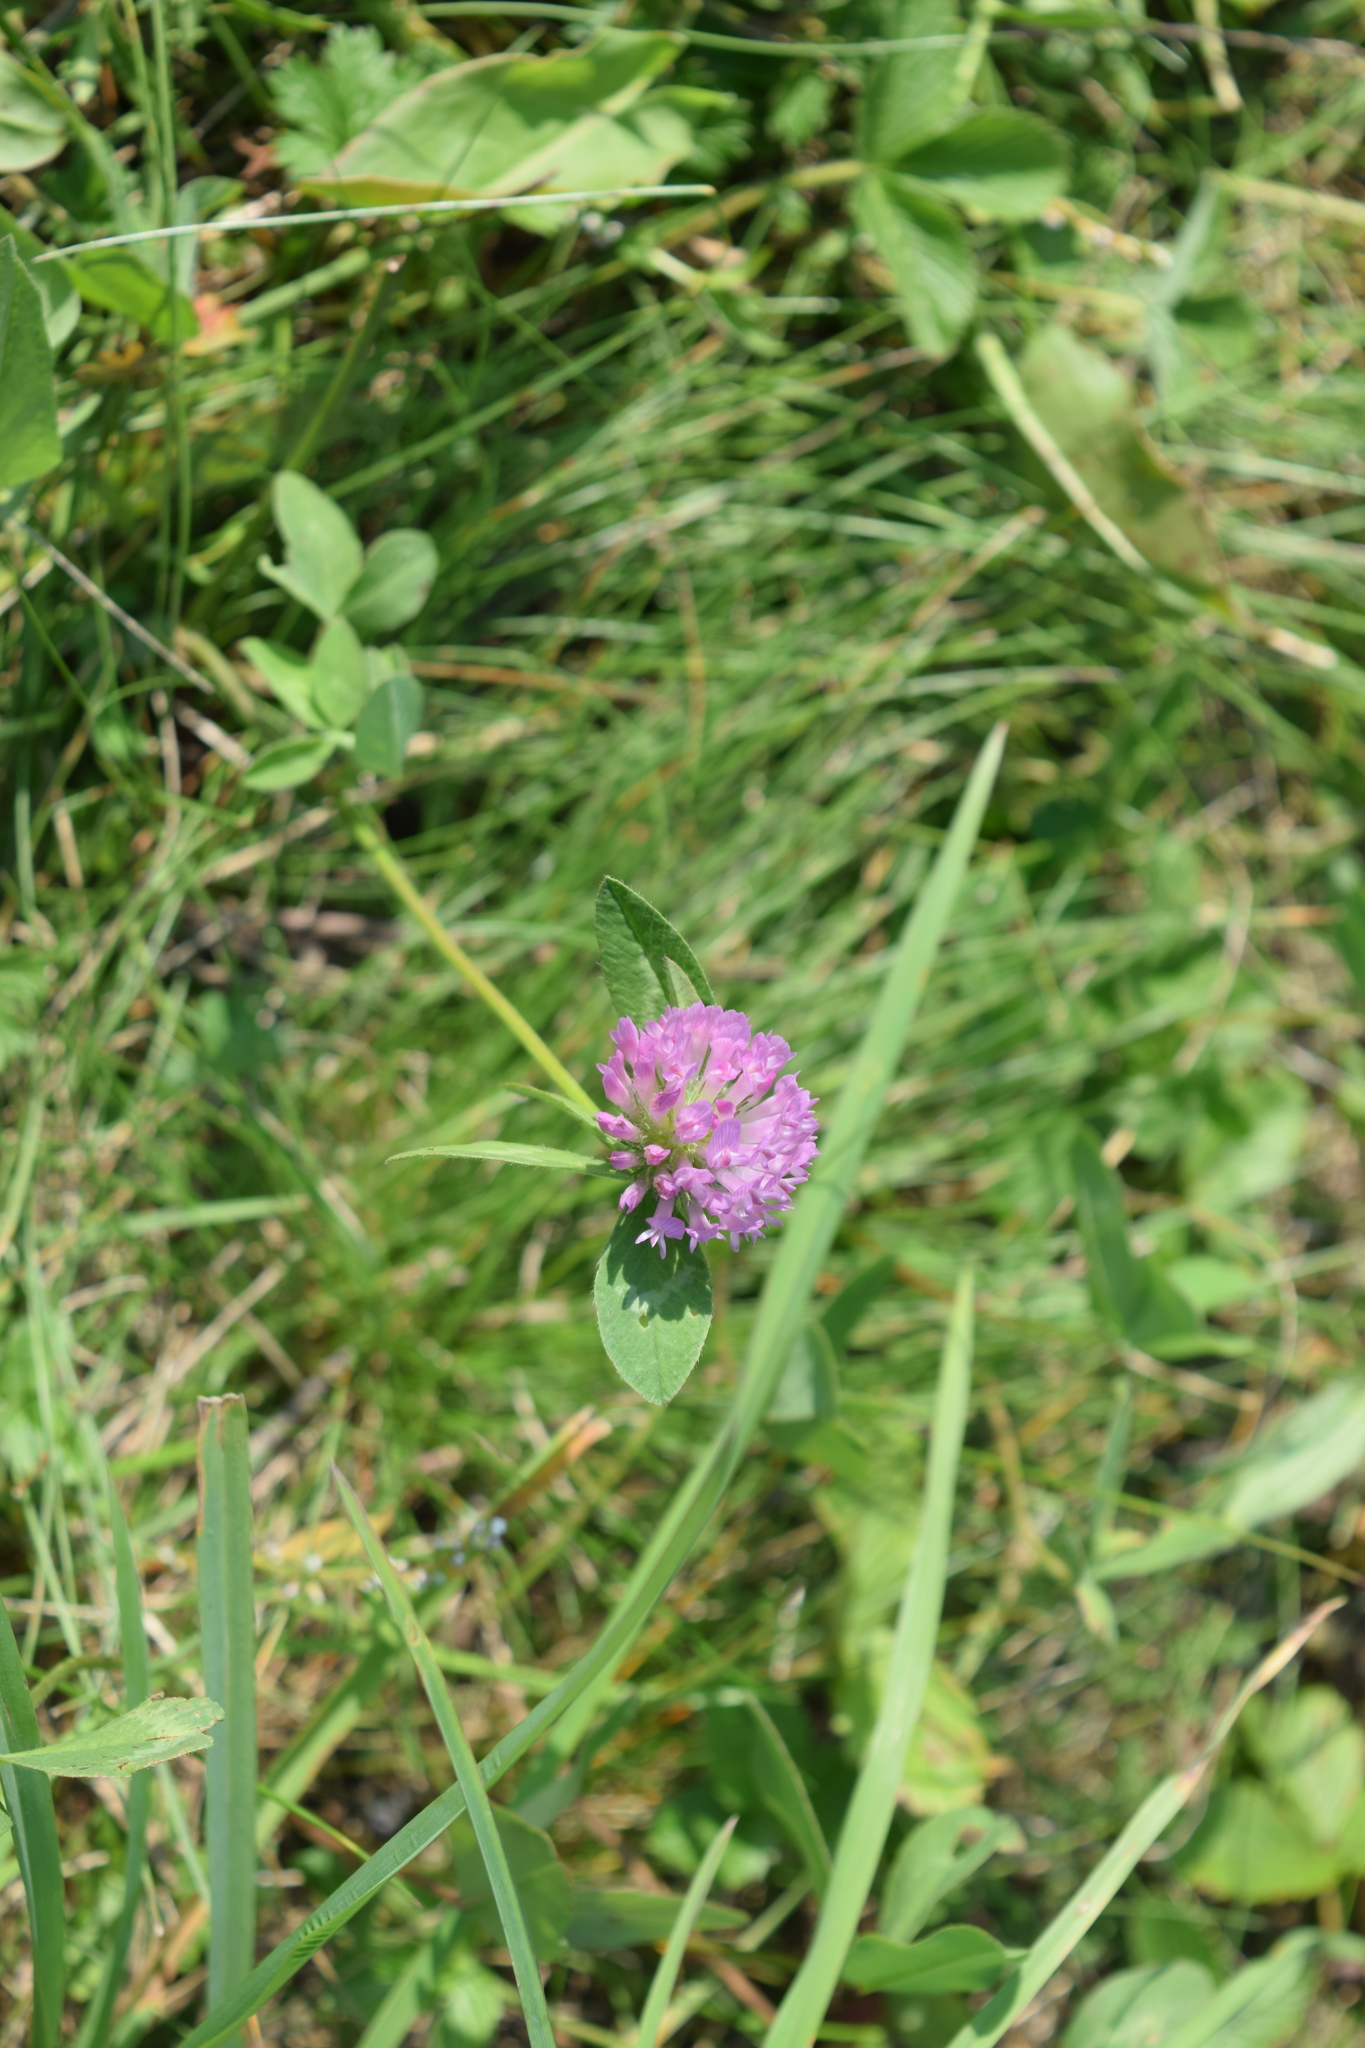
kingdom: Plantae
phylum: Tracheophyta
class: Magnoliopsida
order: Fabales
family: Fabaceae
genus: Trifolium
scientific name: Trifolium pratense
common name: Red clover
